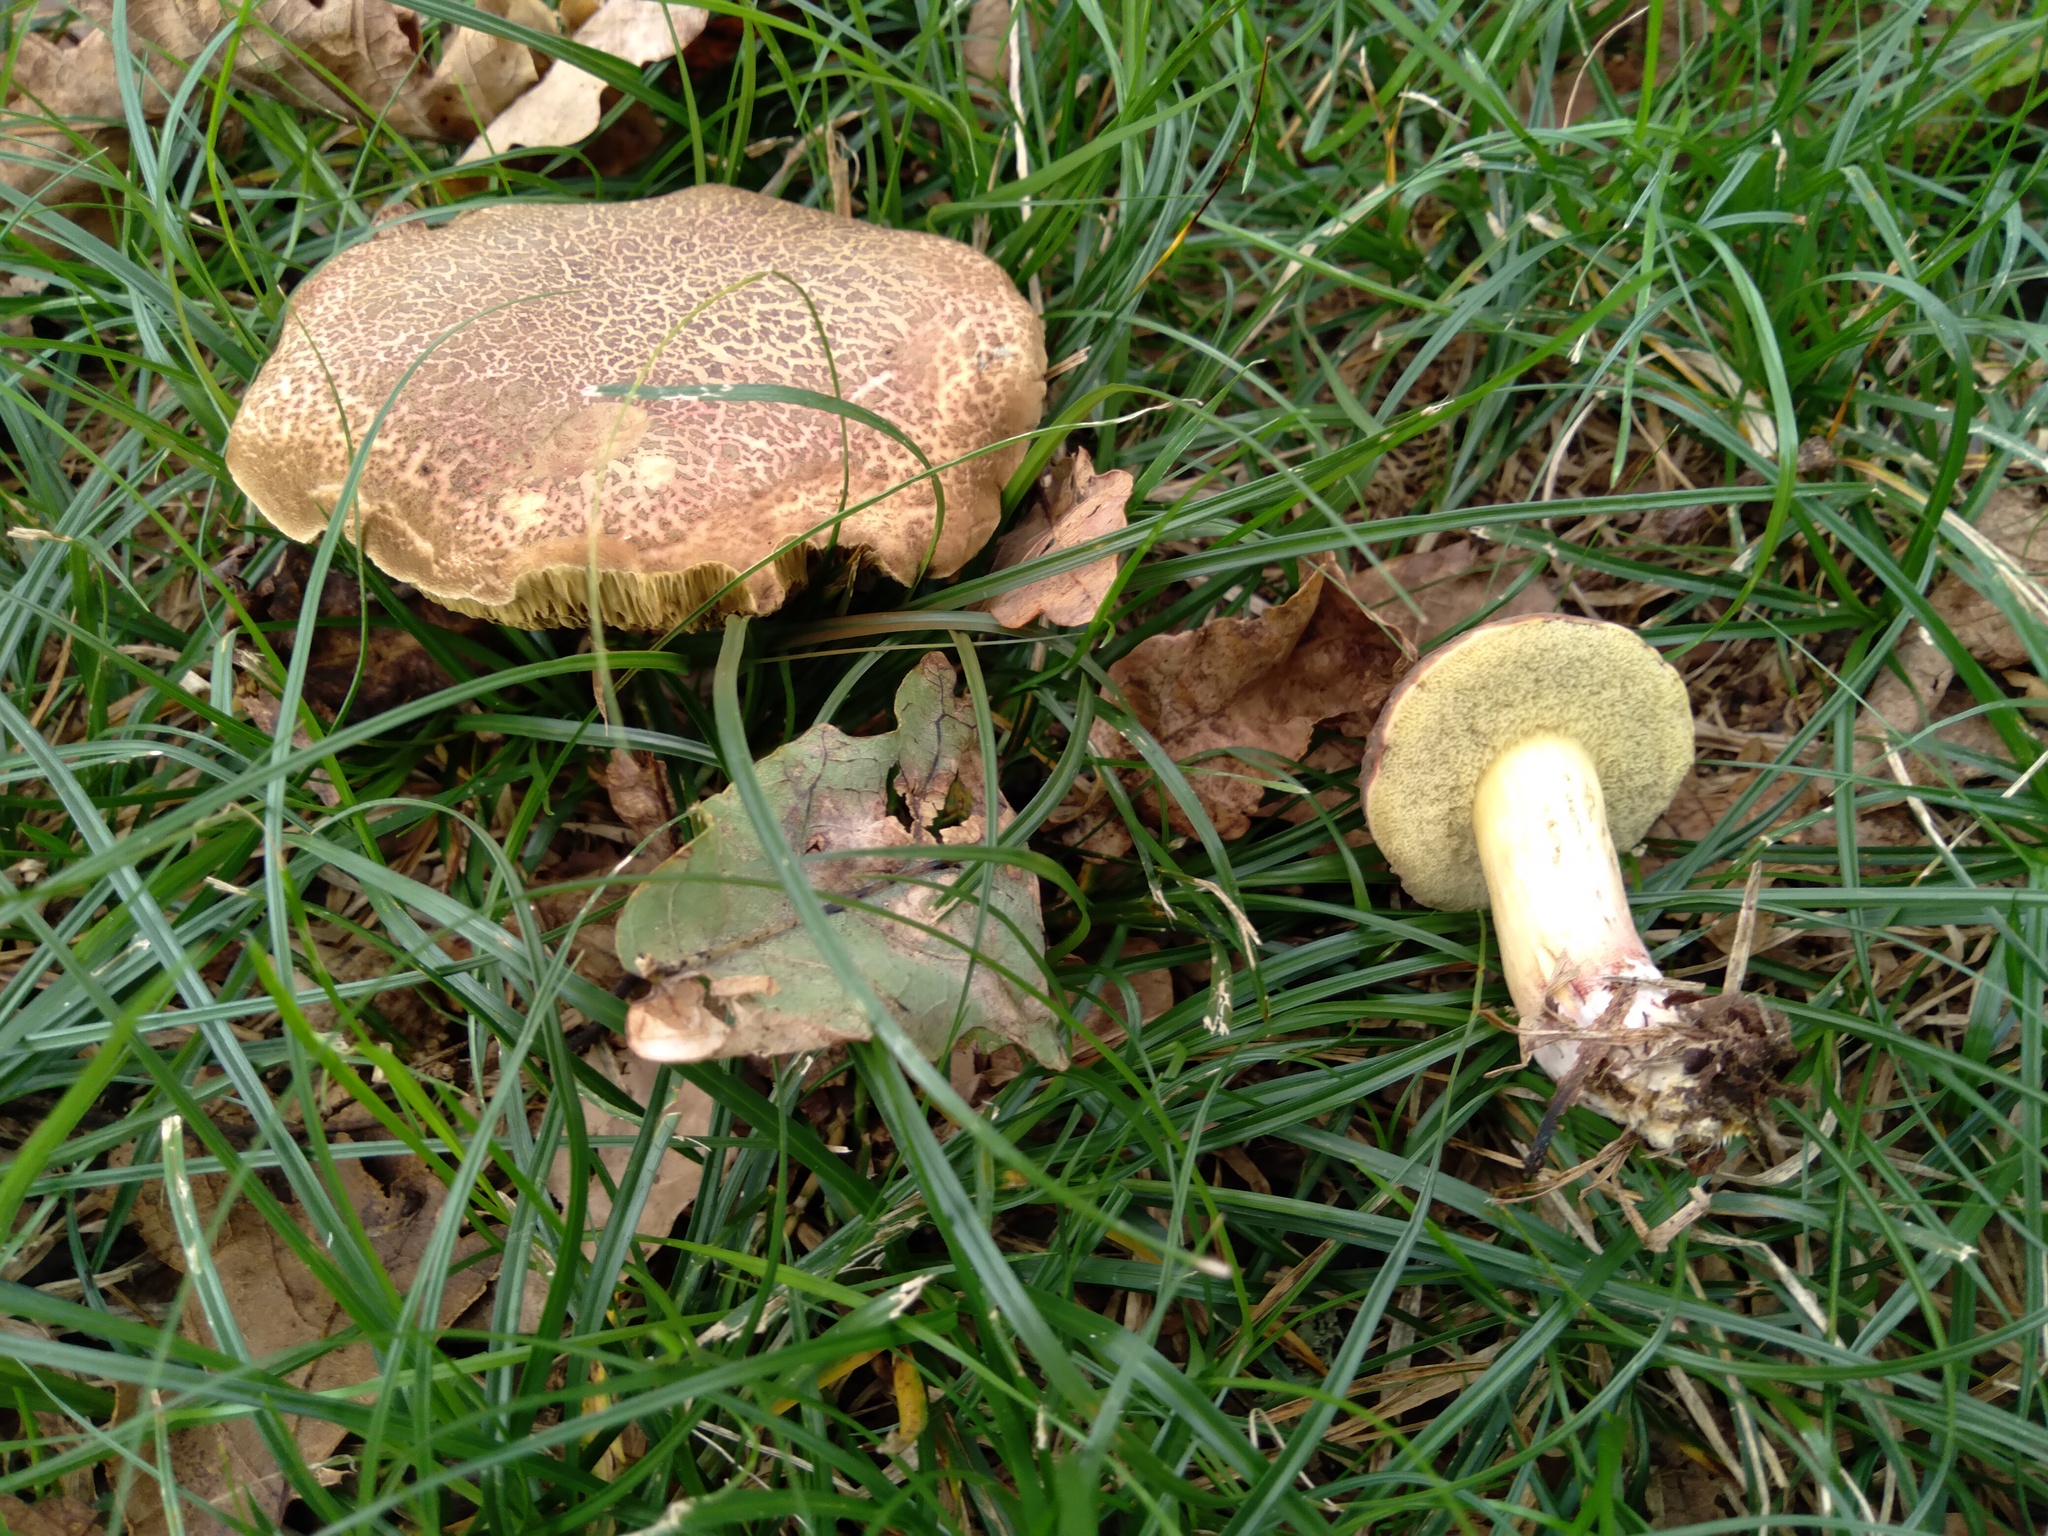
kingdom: Fungi
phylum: Basidiomycota
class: Agaricomycetes
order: Boletales
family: Boletaceae
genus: Xerocomellus
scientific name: Xerocomellus cisalpinus
